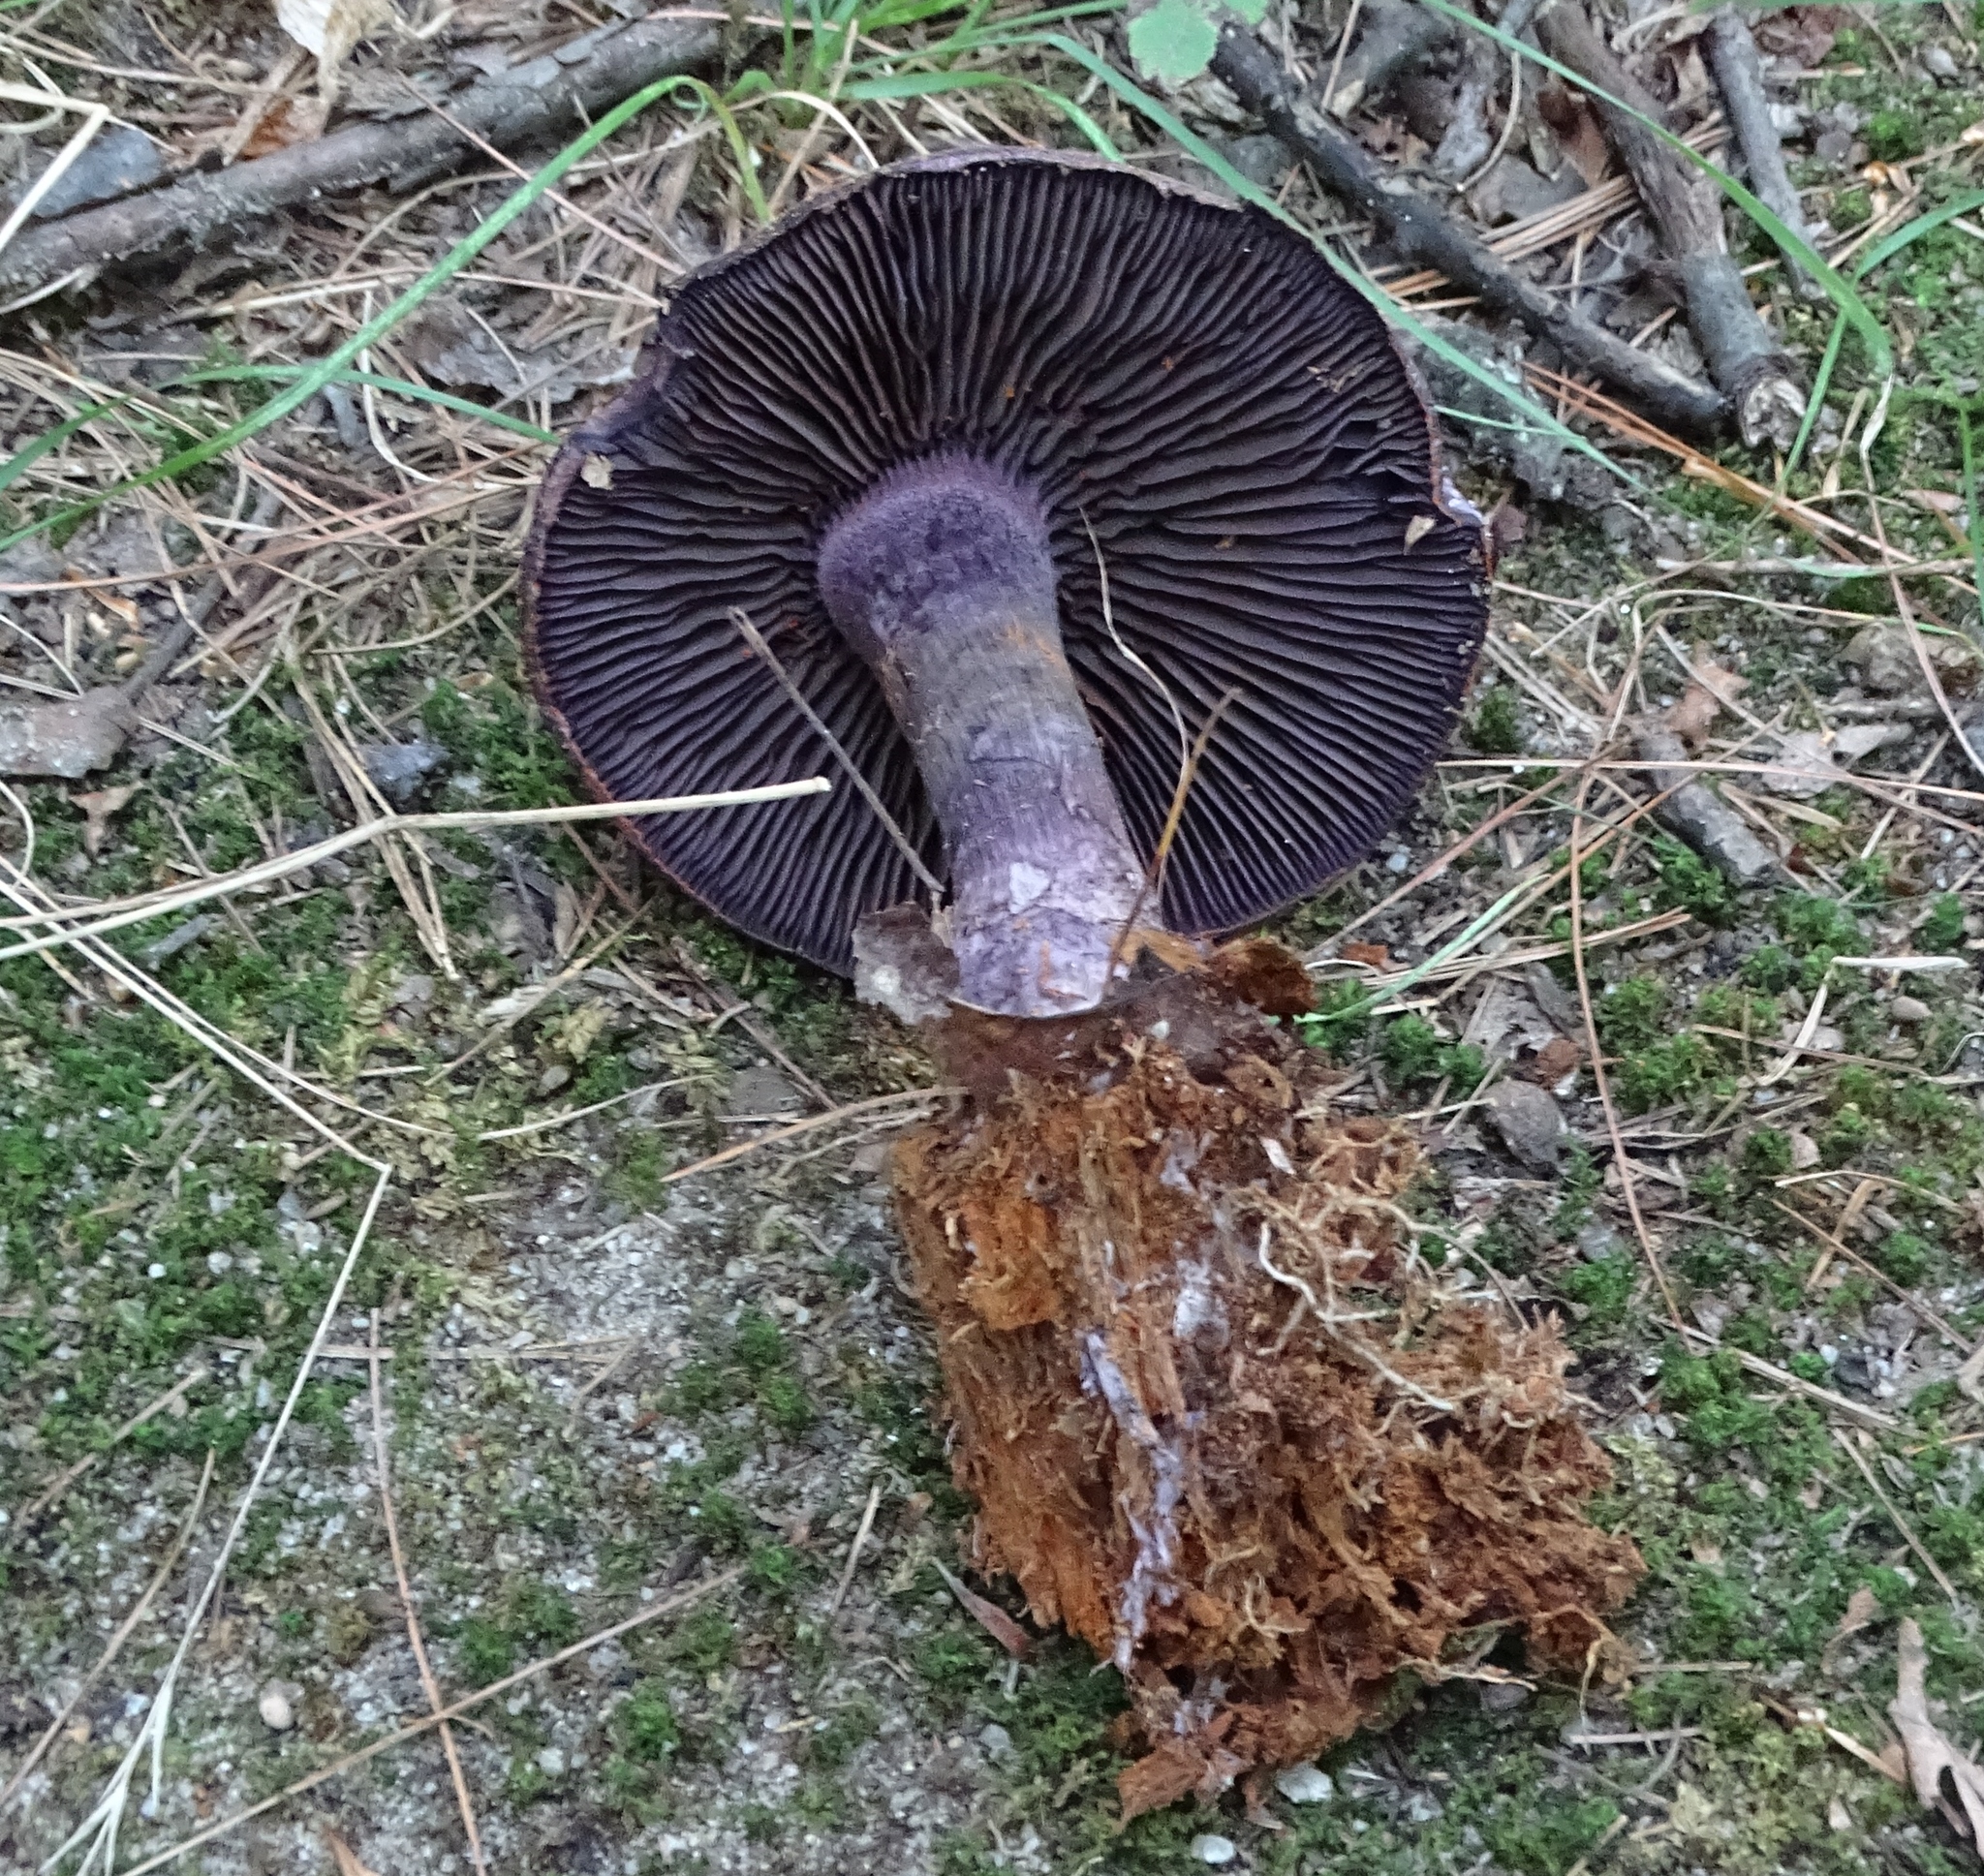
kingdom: Fungi
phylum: Basidiomycota
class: Agaricomycetes
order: Agaricales
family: Cortinariaceae
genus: Cortinarius
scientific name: Cortinarius violaceus
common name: Violet webcap
